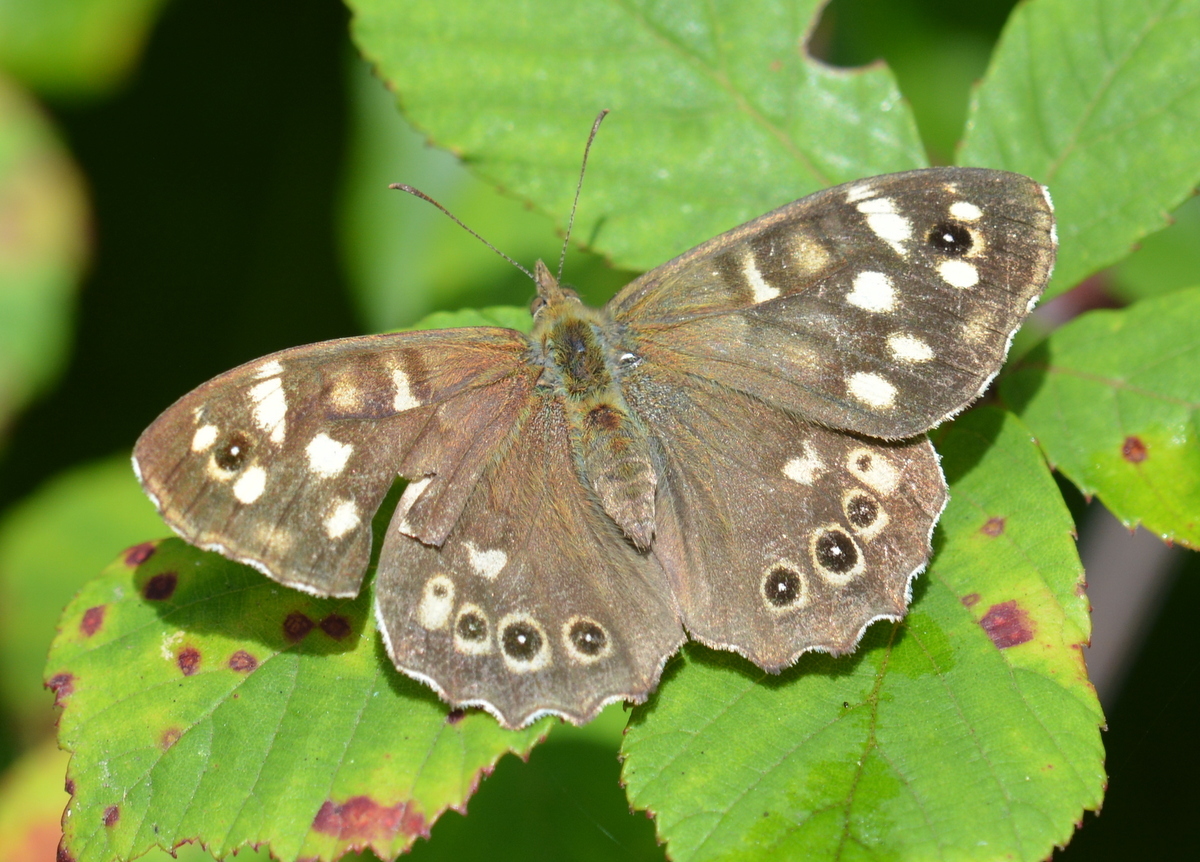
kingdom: Animalia
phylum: Arthropoda
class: Insecta
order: Lepidoptera
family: Nymphalidae
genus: Pararge
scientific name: Pararge aegeria
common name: Speckled wood
